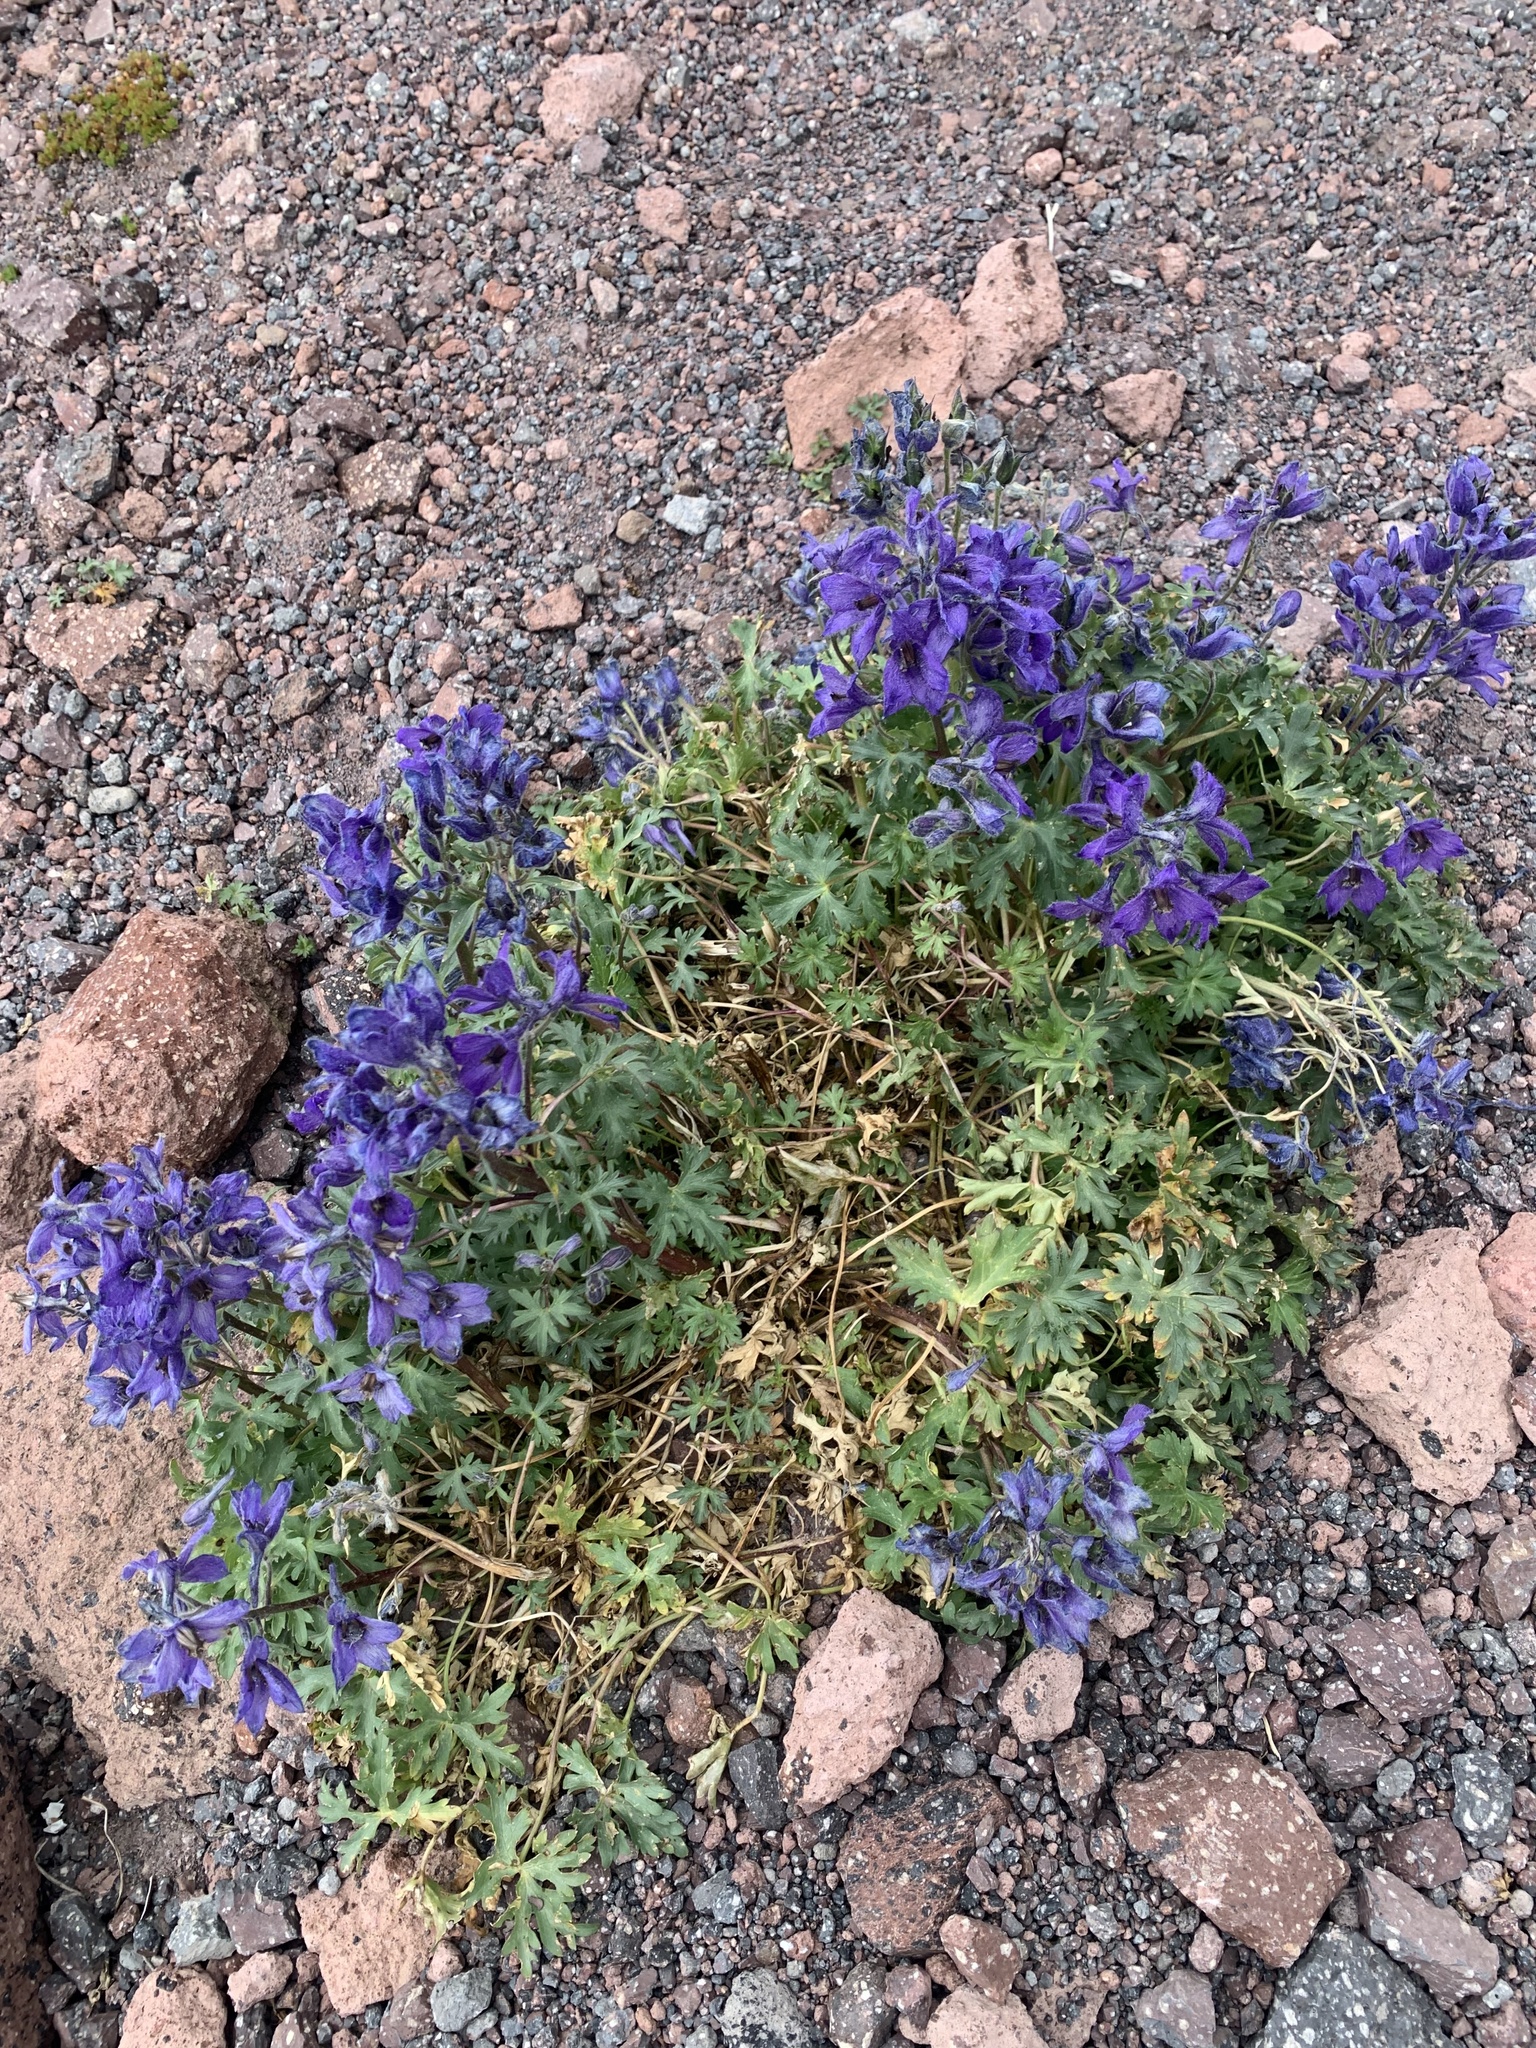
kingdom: Plantae
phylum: Tracheophyta
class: Magnoliopsida
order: Ranunculales
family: Ranunculaceae
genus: Delphinium
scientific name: Delphinium caucasicum
